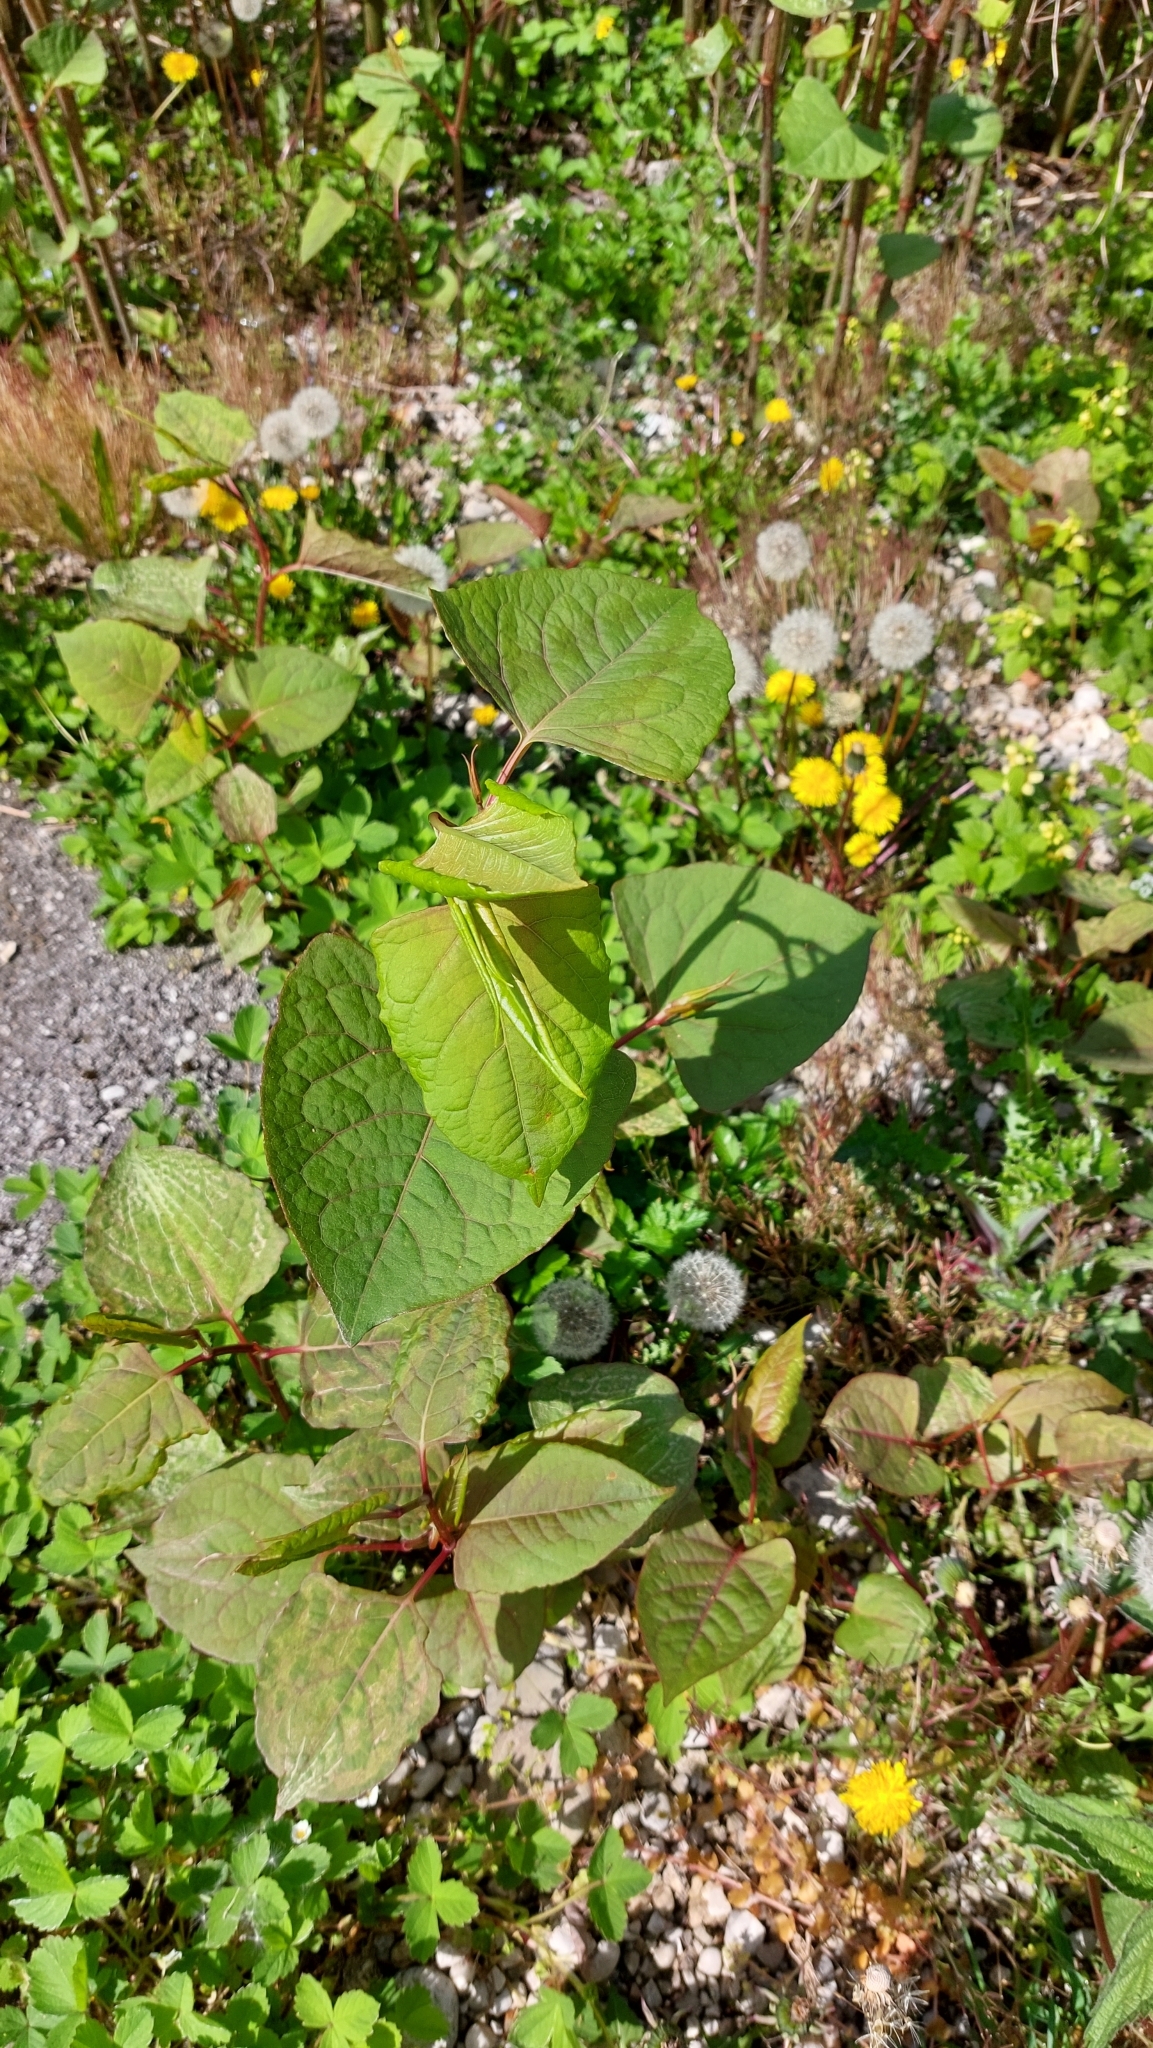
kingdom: Plantae
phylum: Tracheophyta
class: Magnoliopsida
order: Caryophyllales
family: Polygonaceae
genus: Reynoutria
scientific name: Reynoutria
